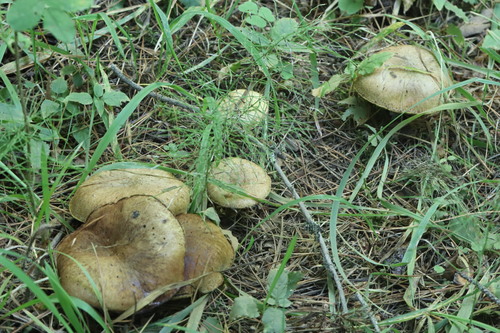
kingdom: Fungi
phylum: Basidiomycota
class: Agaricomycetes
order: Boletales
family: Suillaceae
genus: Suillus
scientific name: Suillus acidus
